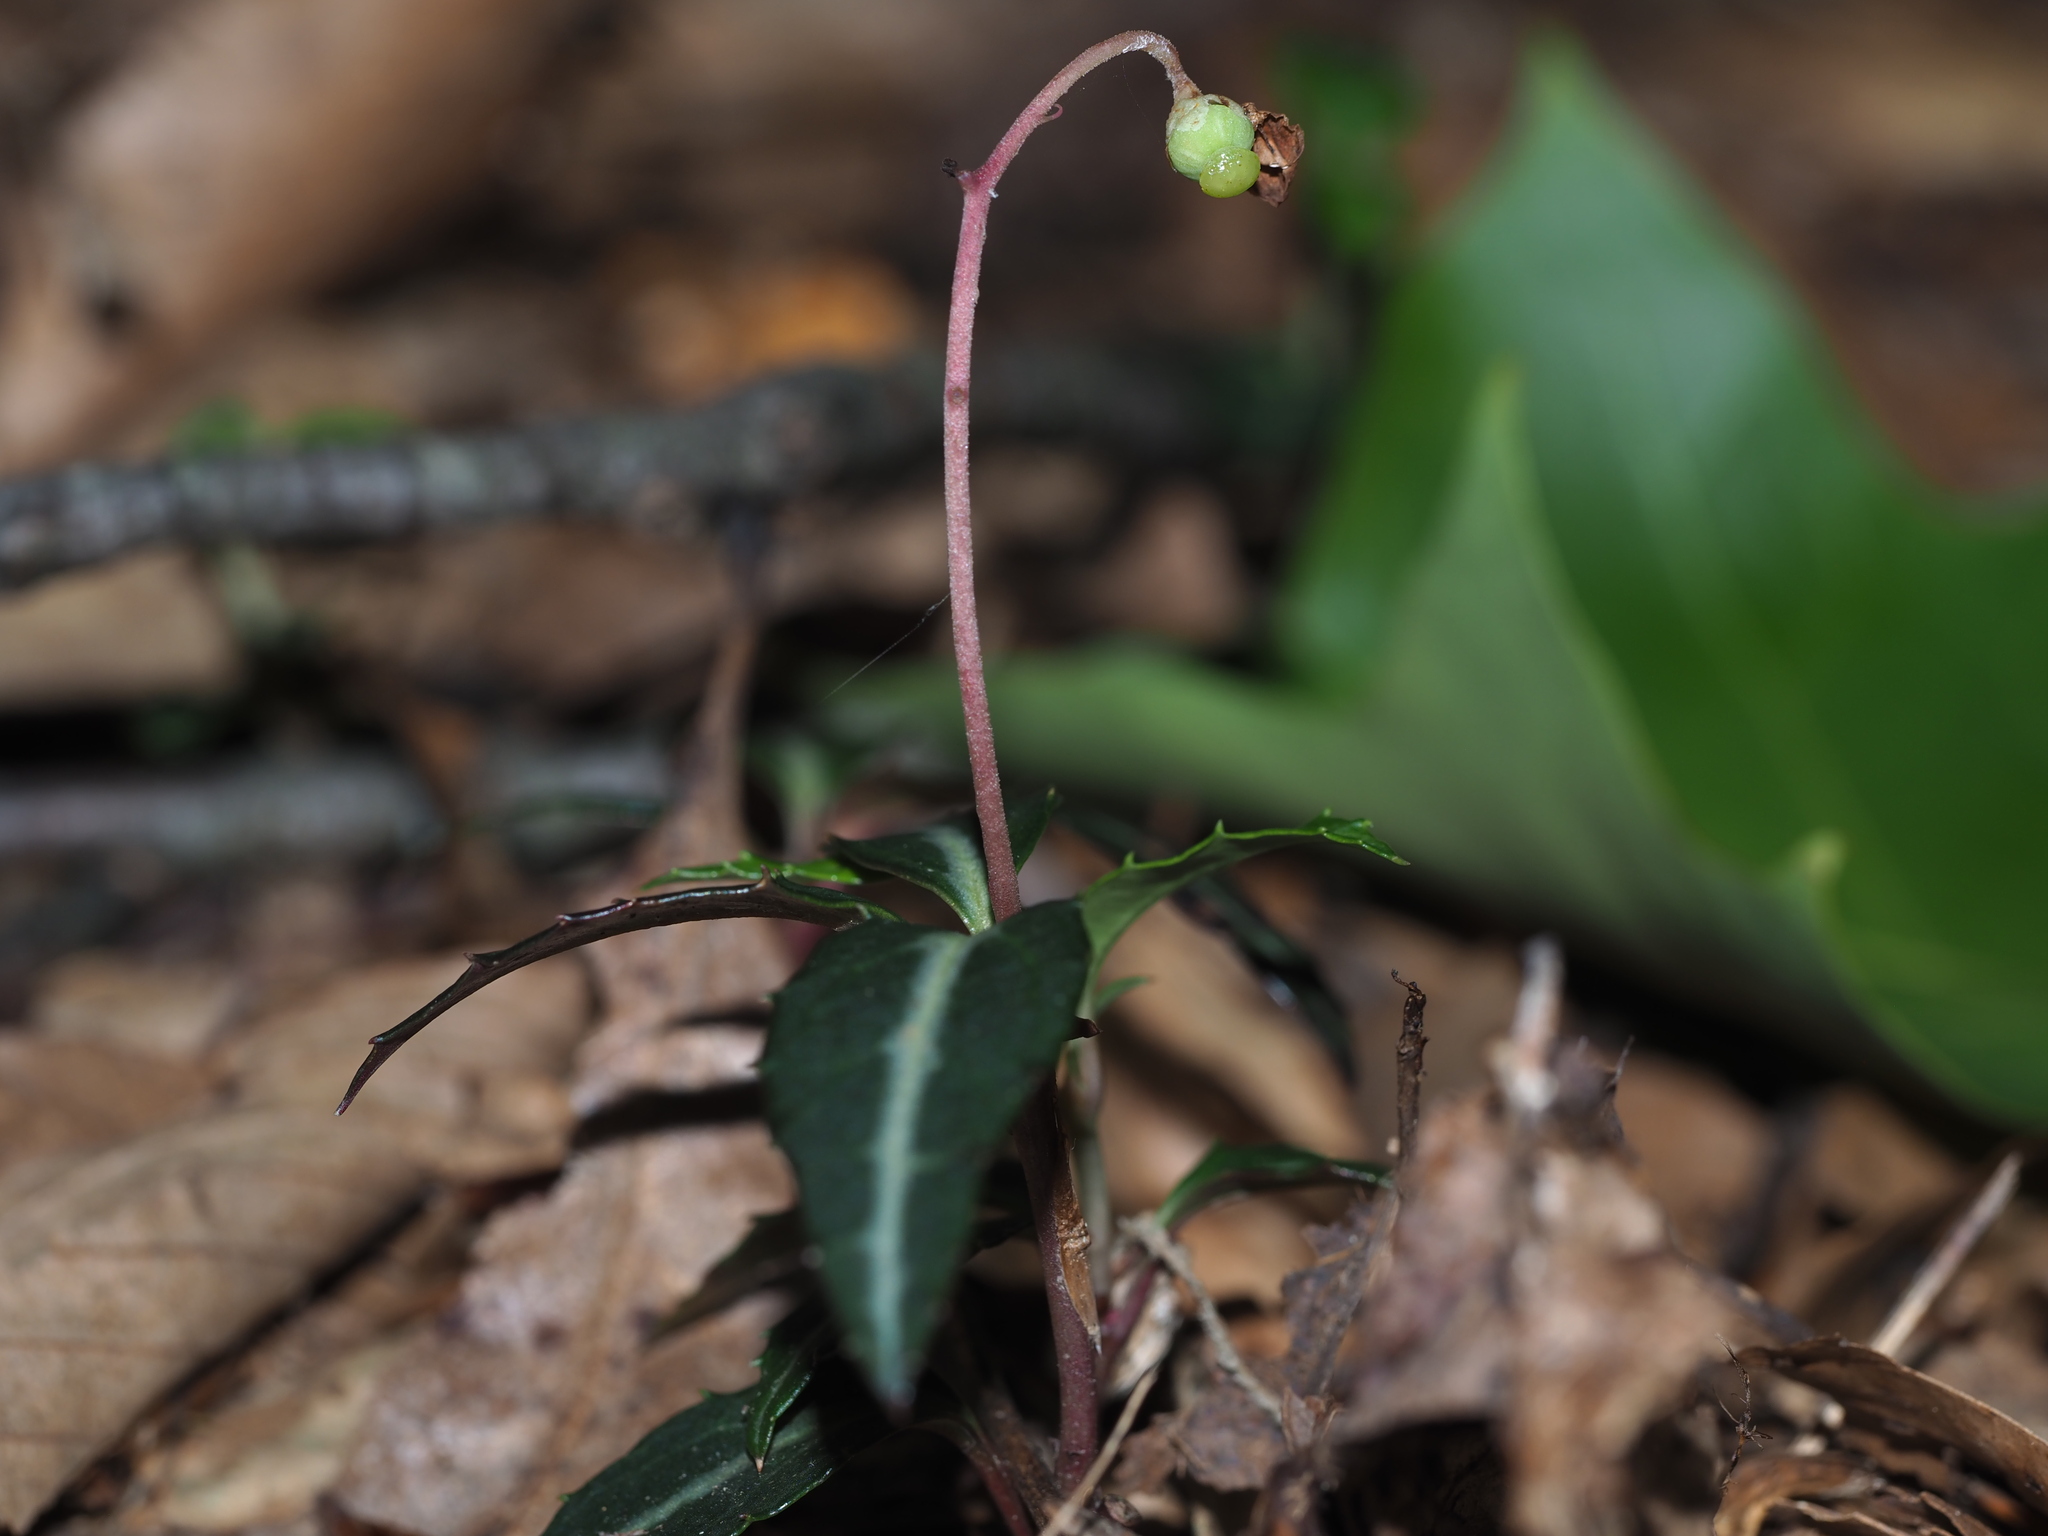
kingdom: Plantae
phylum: Tracheophyta
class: Magnoliopsida
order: Ericales
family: Ericaceae
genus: Chimaphila
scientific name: Chimaphila maculata
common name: Spotted pipsissewa
